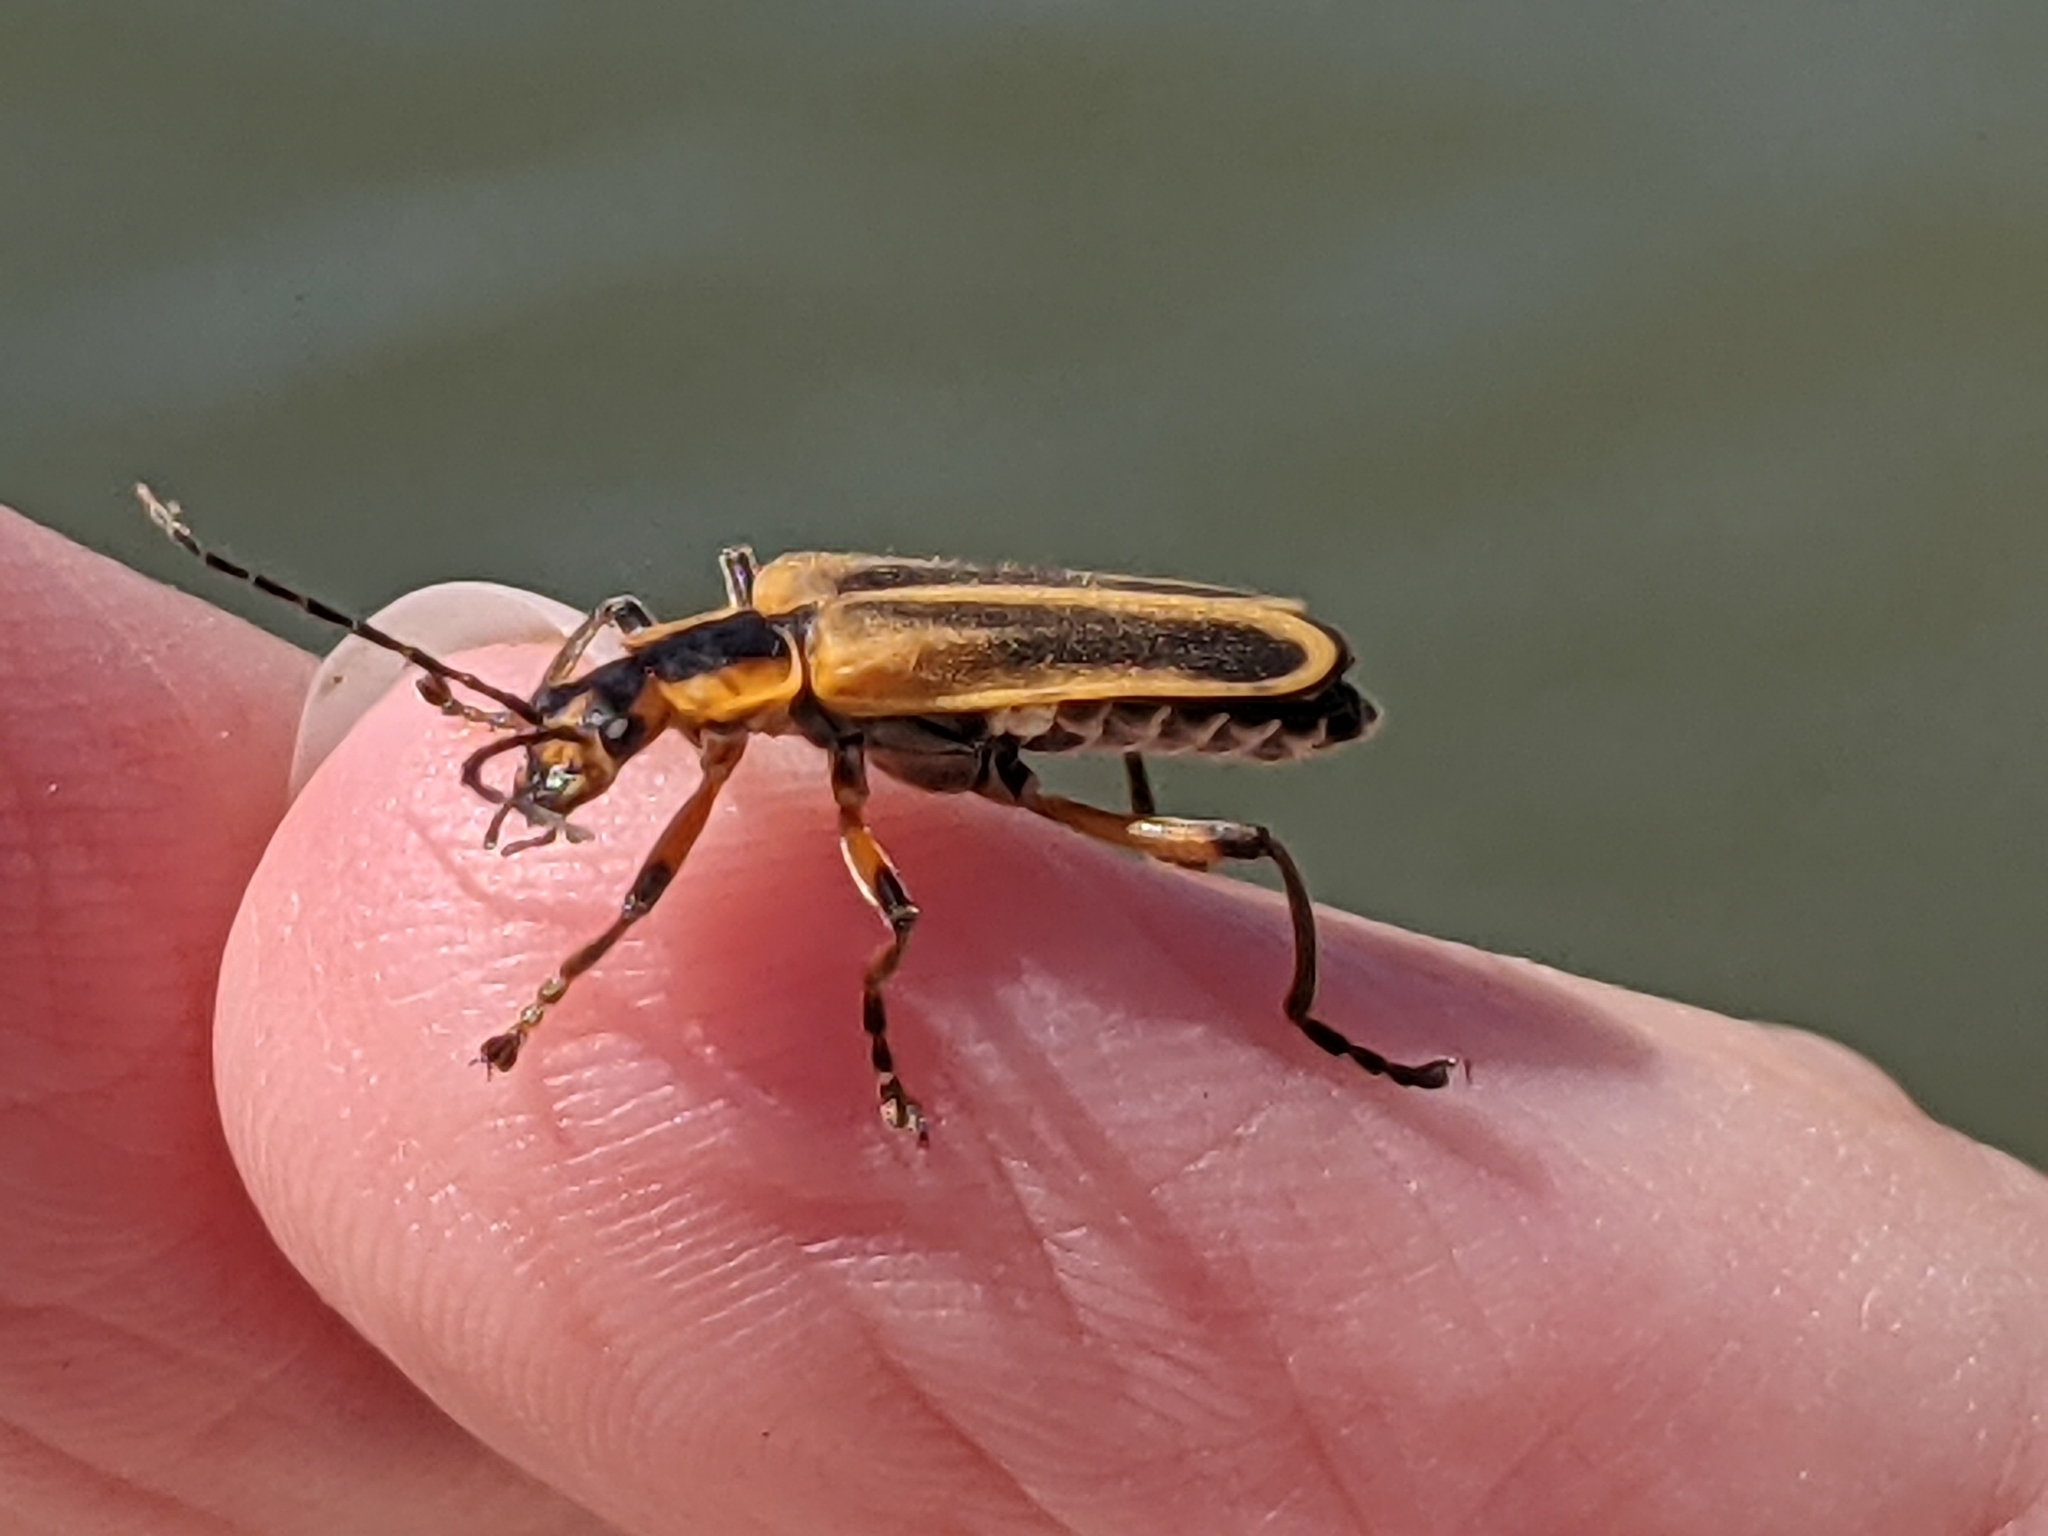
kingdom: Animalia
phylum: Arthropoda
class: Insecta
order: Coleoptera
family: Cantharidae
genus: Chauliognathus
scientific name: Chauliognathus marginatus
